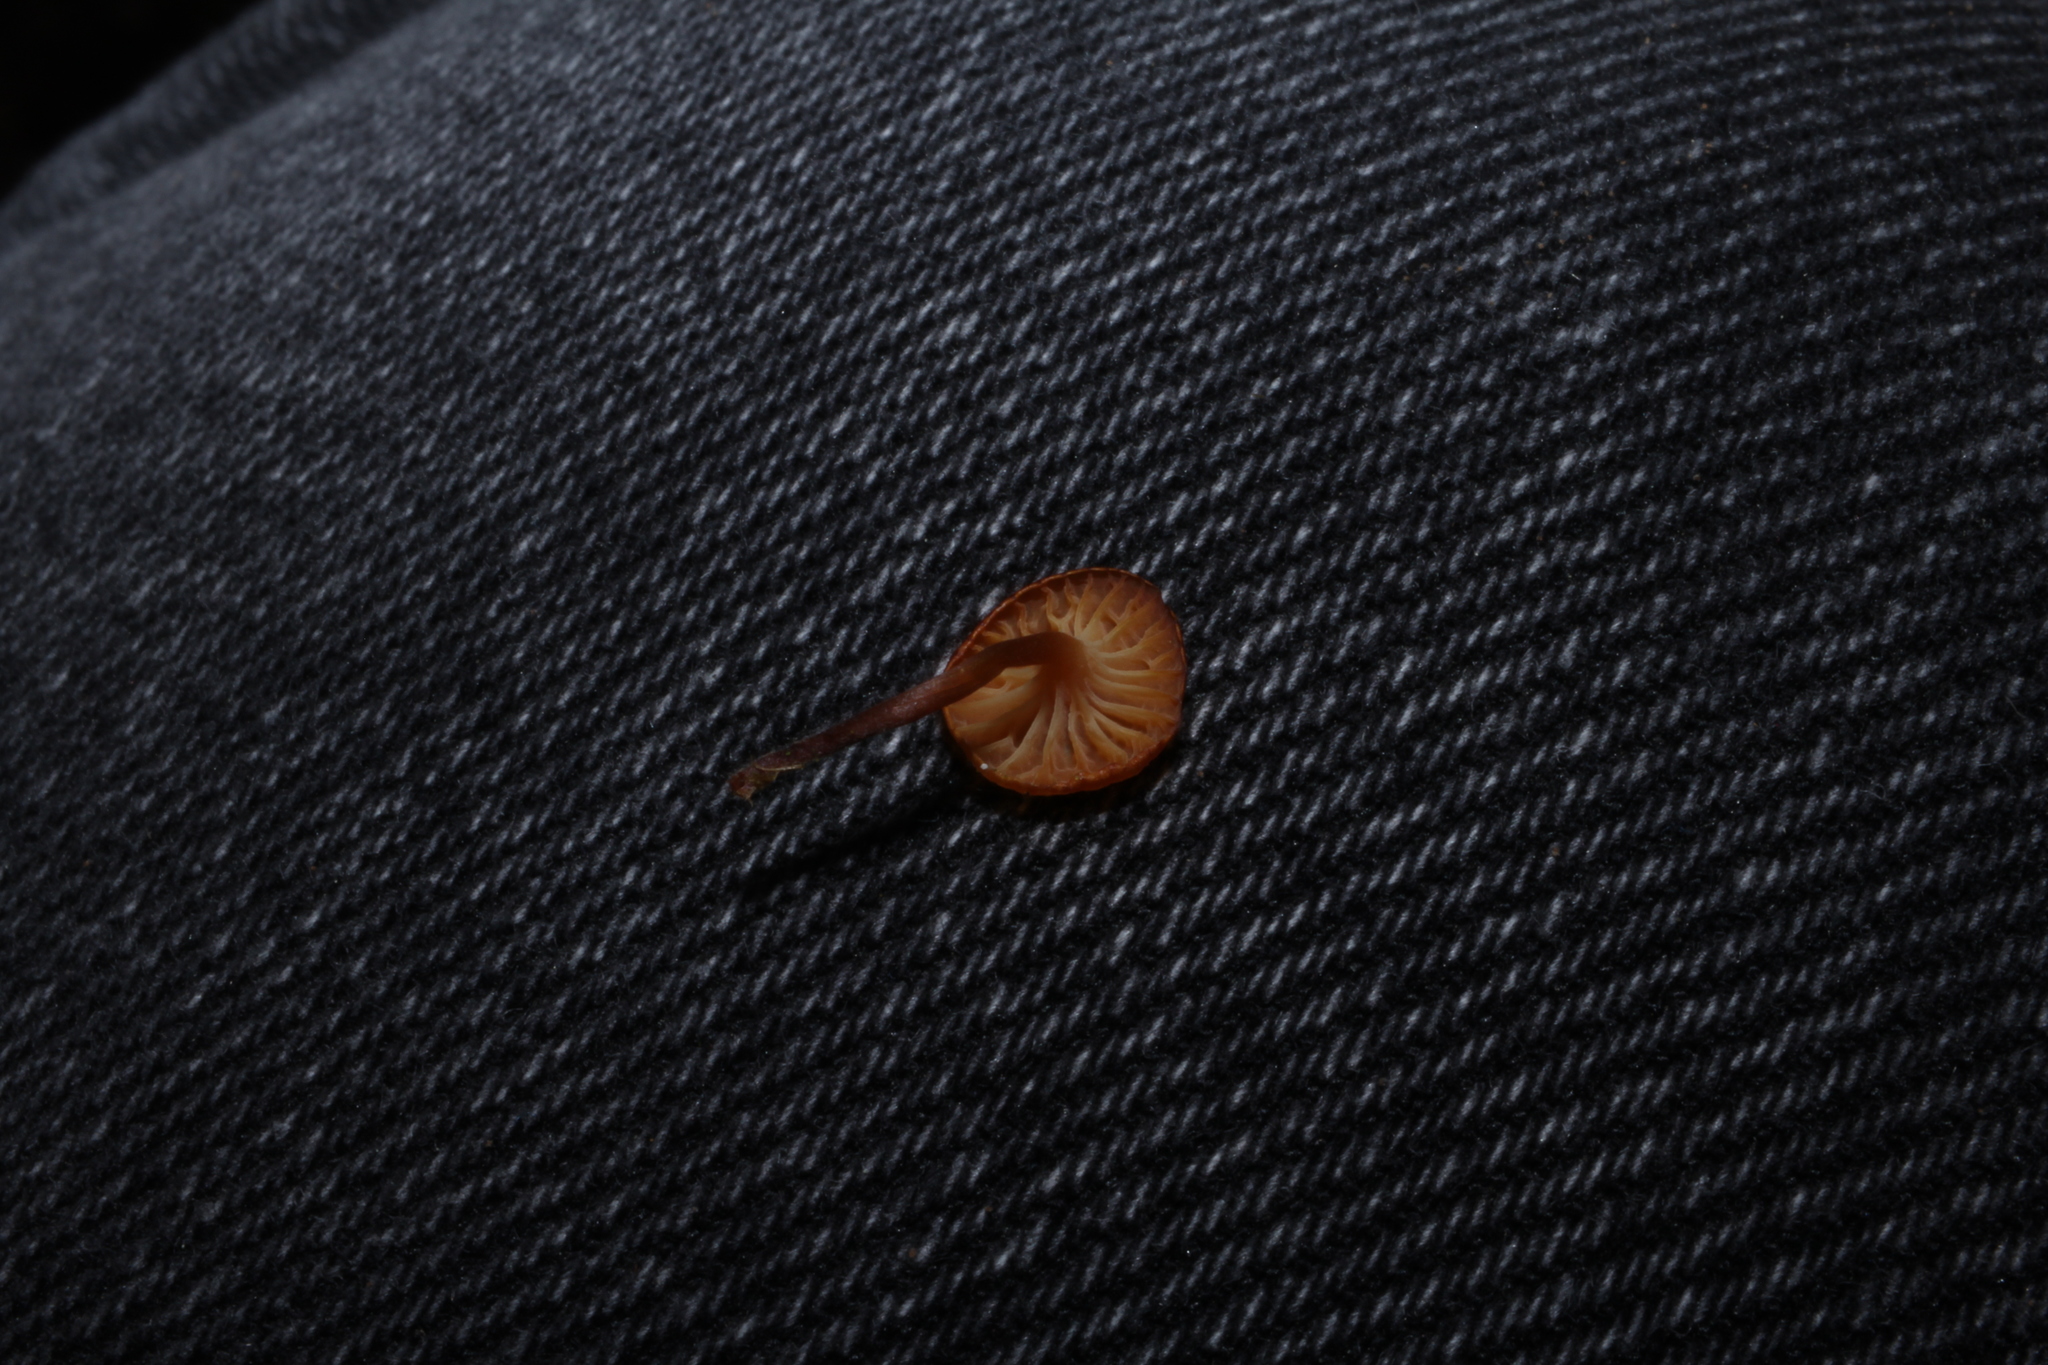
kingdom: Fungi
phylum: Basidiomycota
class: Agaricomycetes
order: Agaricales
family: Mycenaceae
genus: Xeromphalina
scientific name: Xeromphalina campanella
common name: Pinewood gingertail
